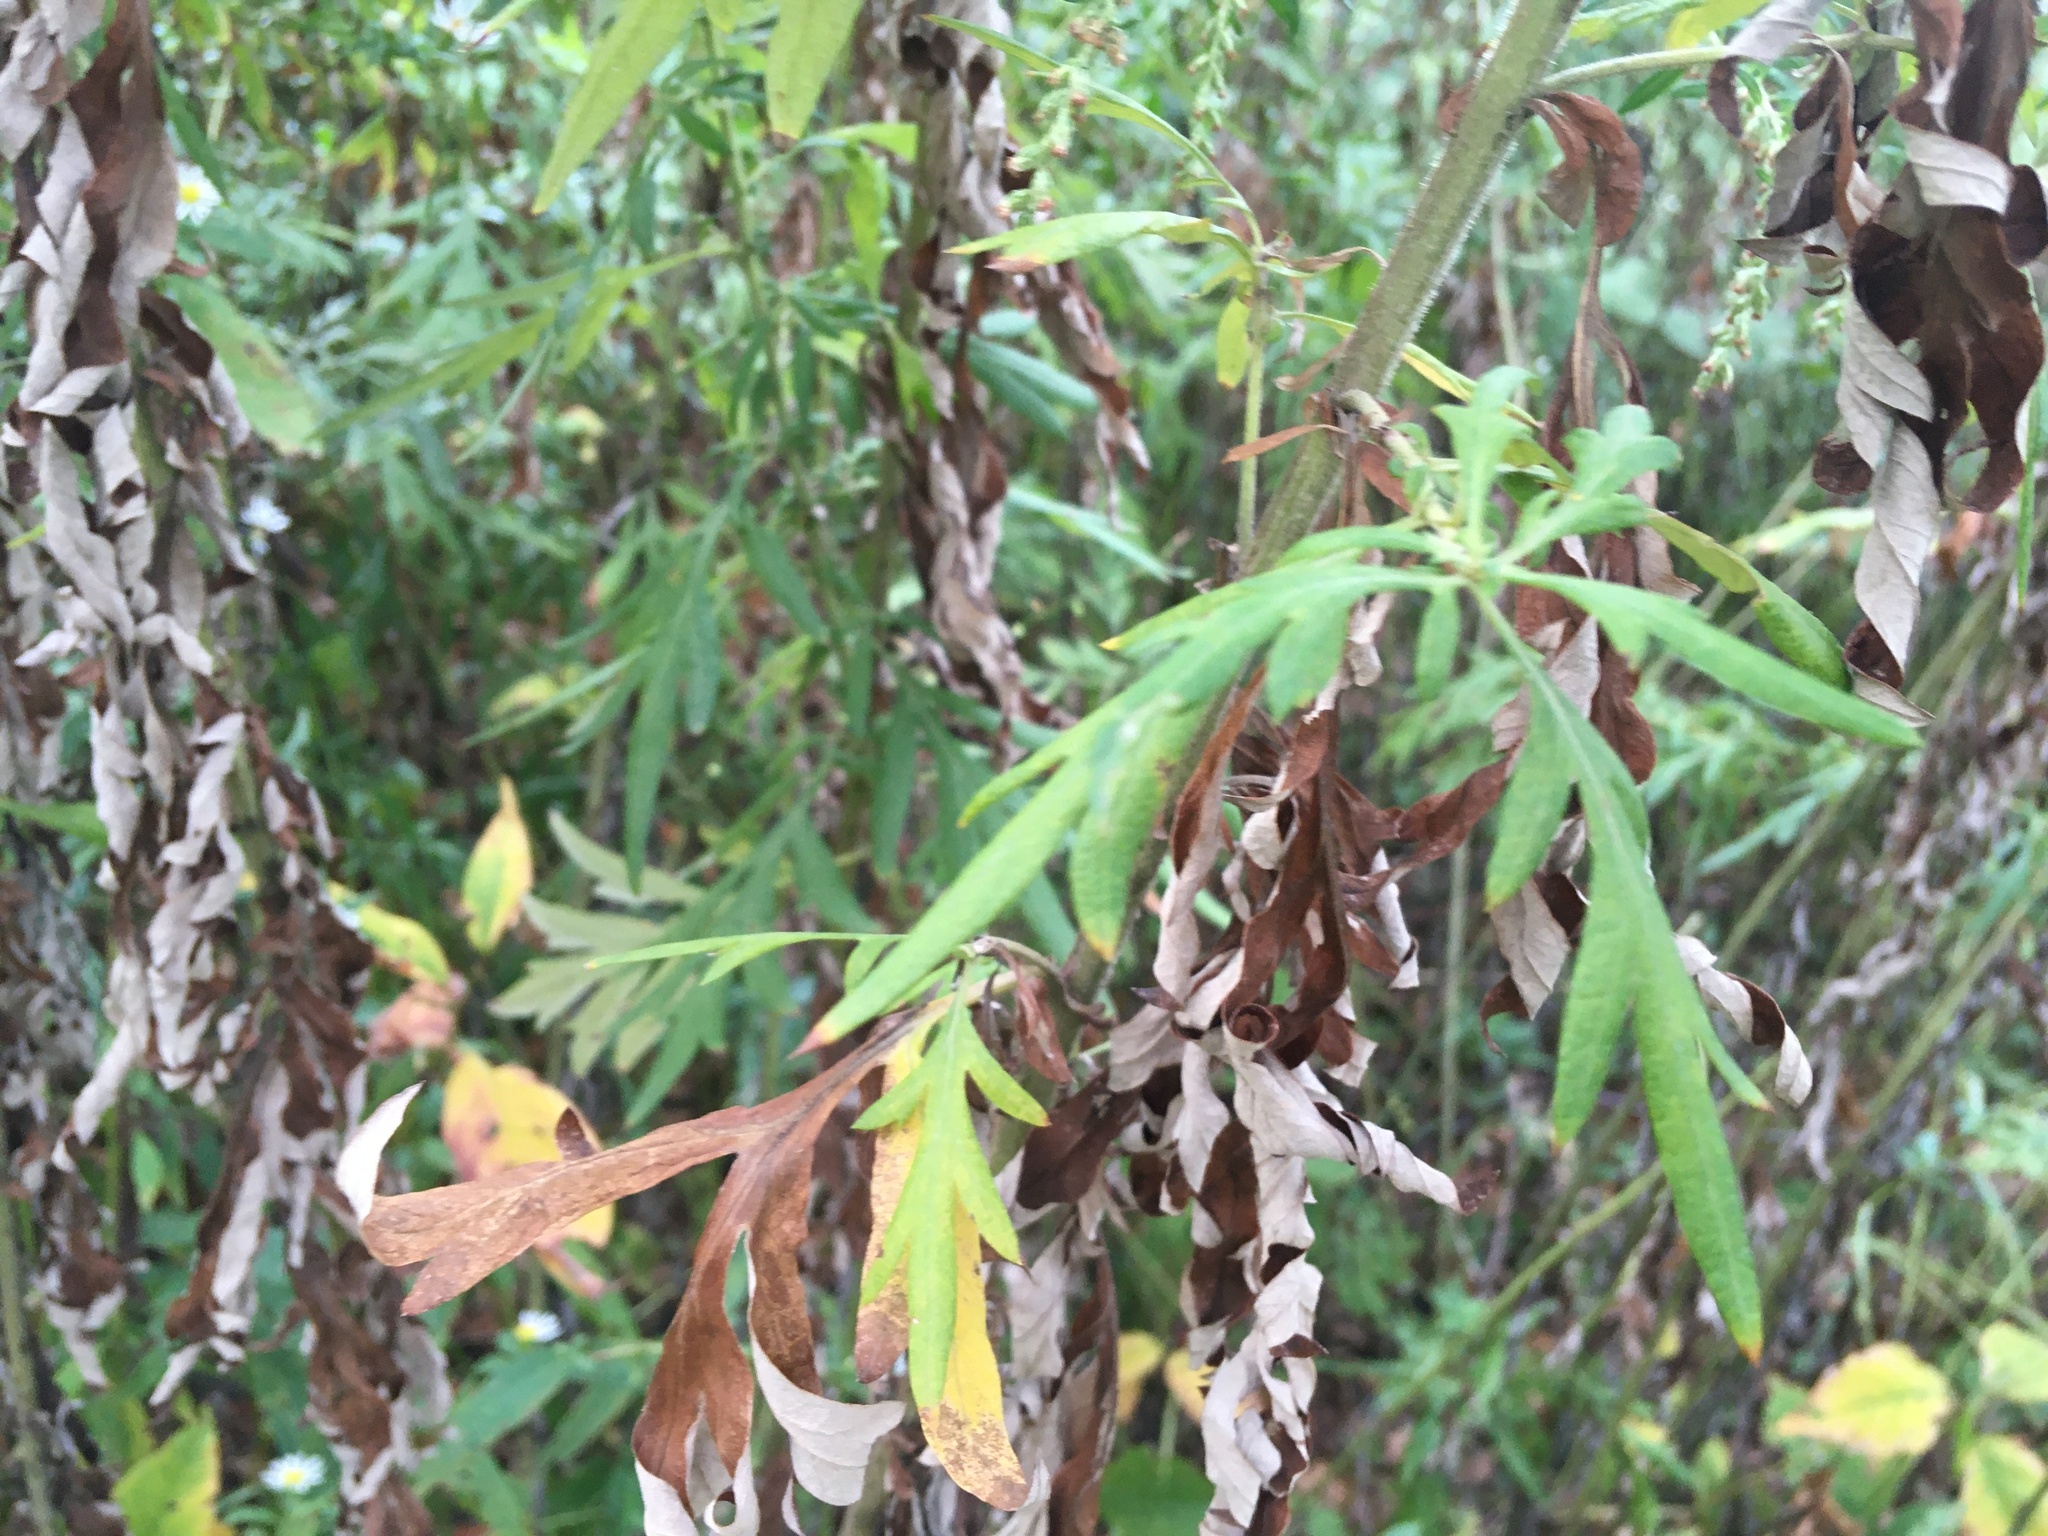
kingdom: Plantae
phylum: Tracheophyta
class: Magnoliopsida
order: Asterales
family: Asteraceae
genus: Artemisia
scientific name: Artemisia vulgaris
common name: Mugwort
